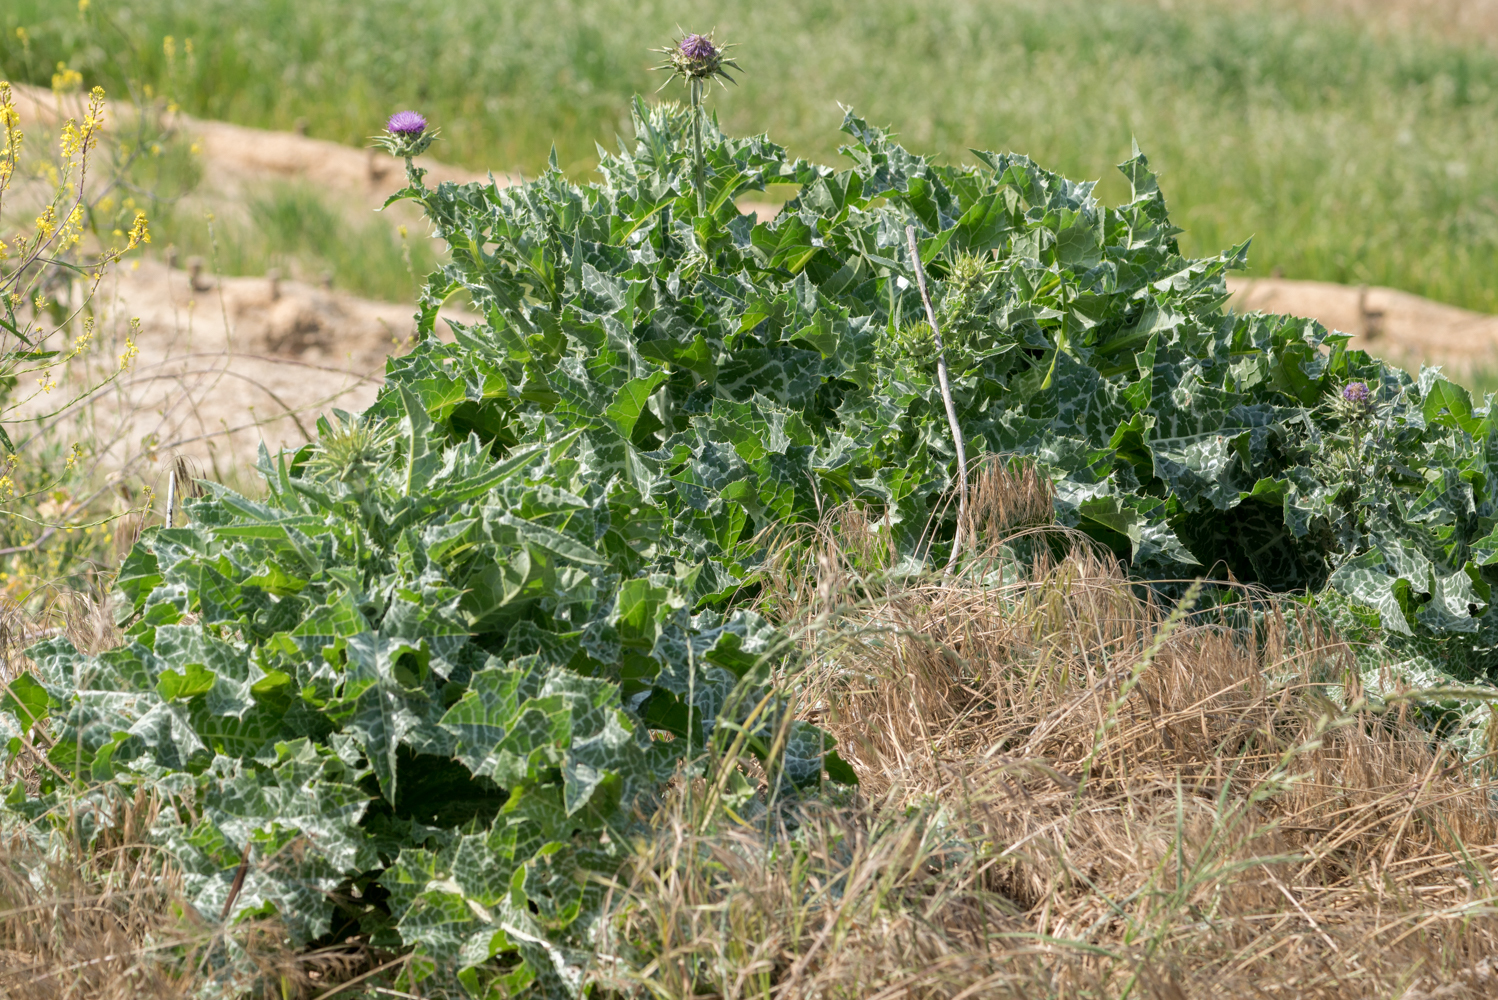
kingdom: Plantae
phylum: Tracheophyta
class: Magnoliopsida
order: Asterales
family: Asteraceae
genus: Silybum
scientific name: Silybum marianum
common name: Milk thistle
